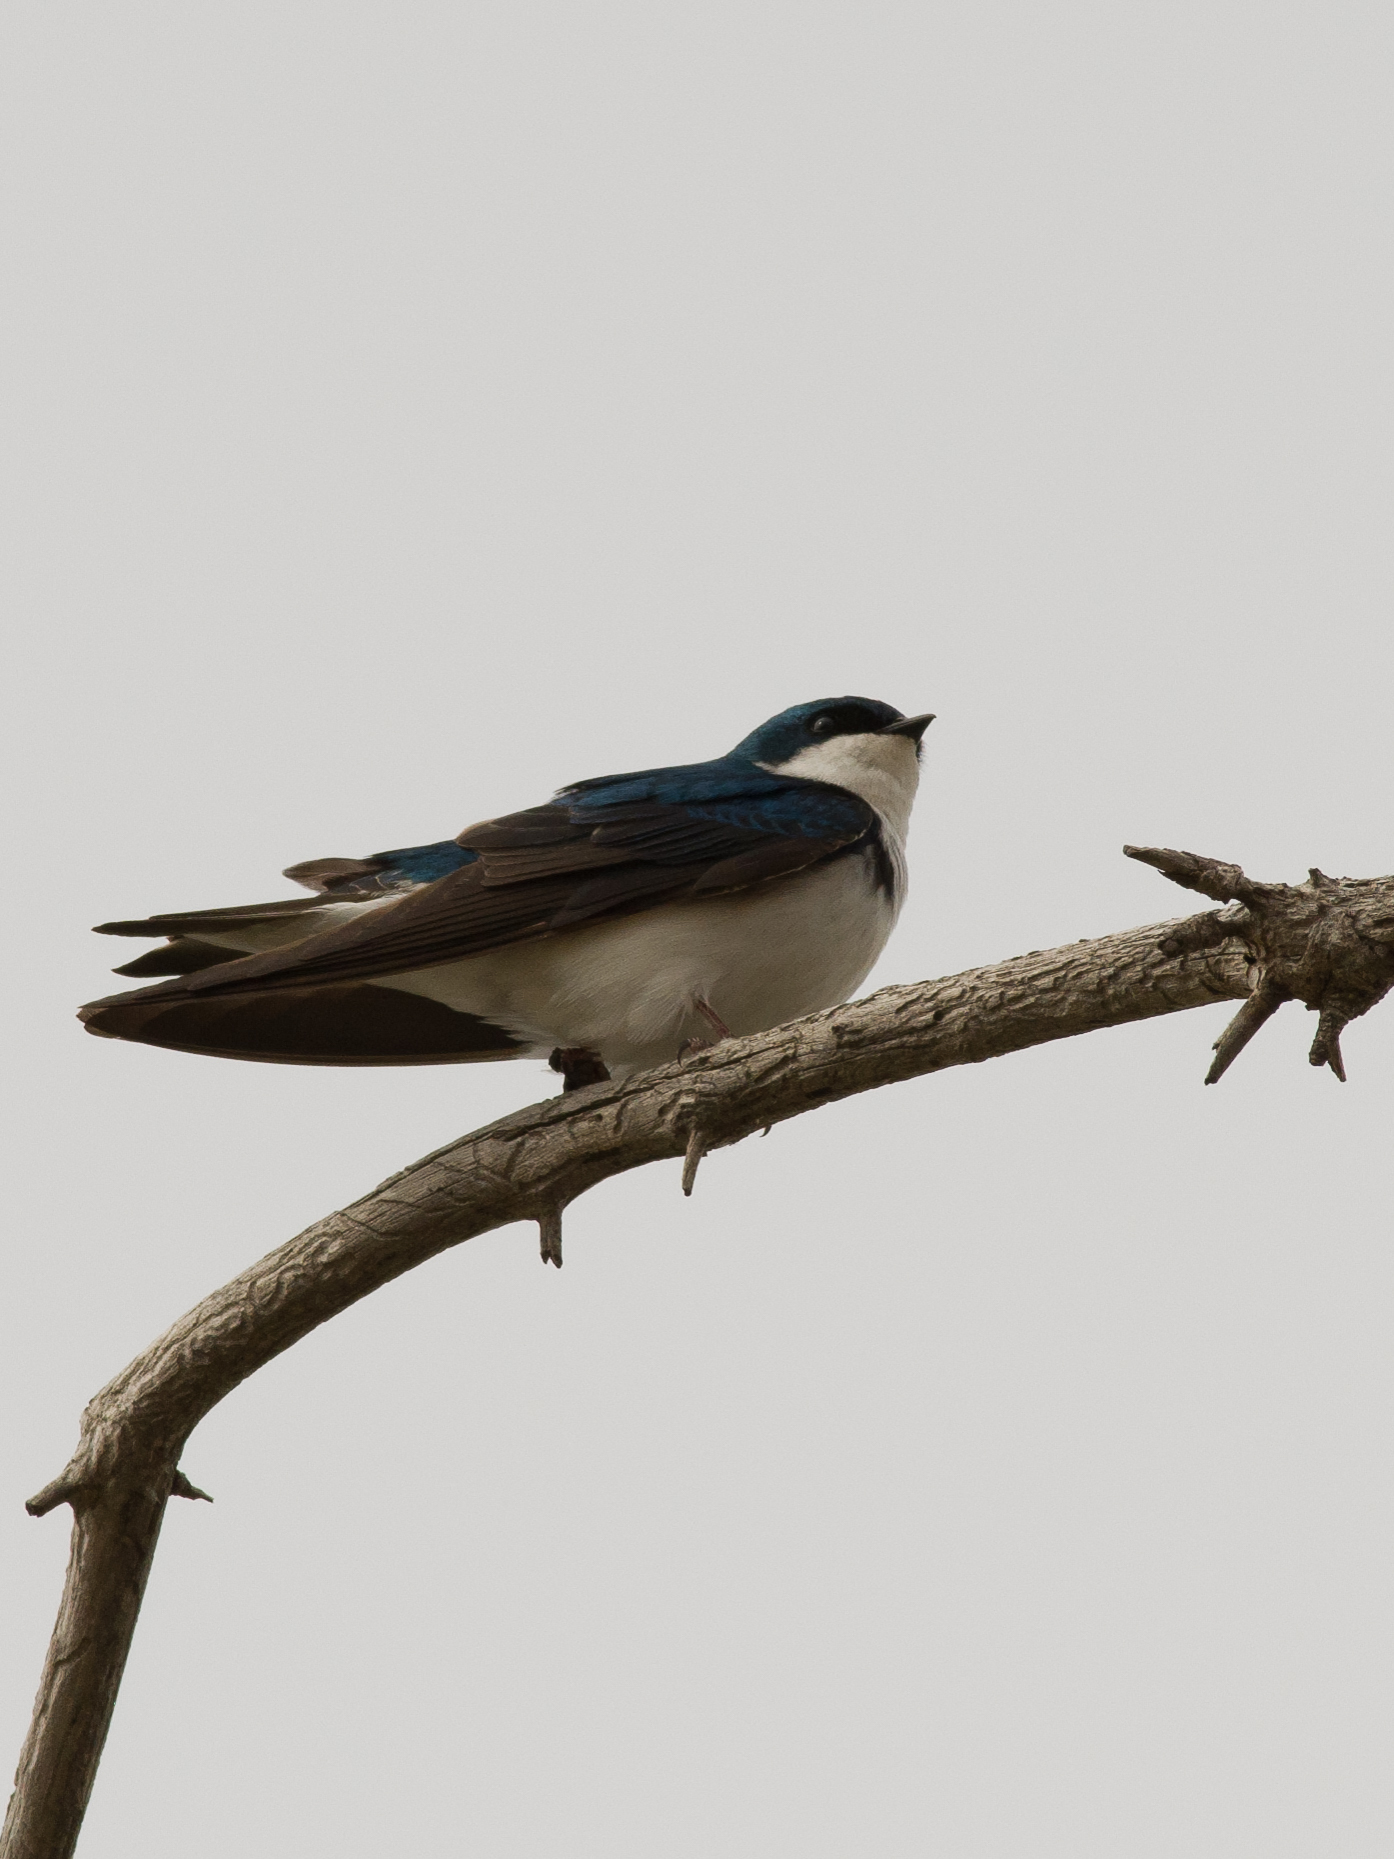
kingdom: Animalia
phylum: Chordata
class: Aves
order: Passeriformes
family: Hirundinidae
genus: Tachycineta
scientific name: Tachycineta bicolor
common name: Tree swallow
